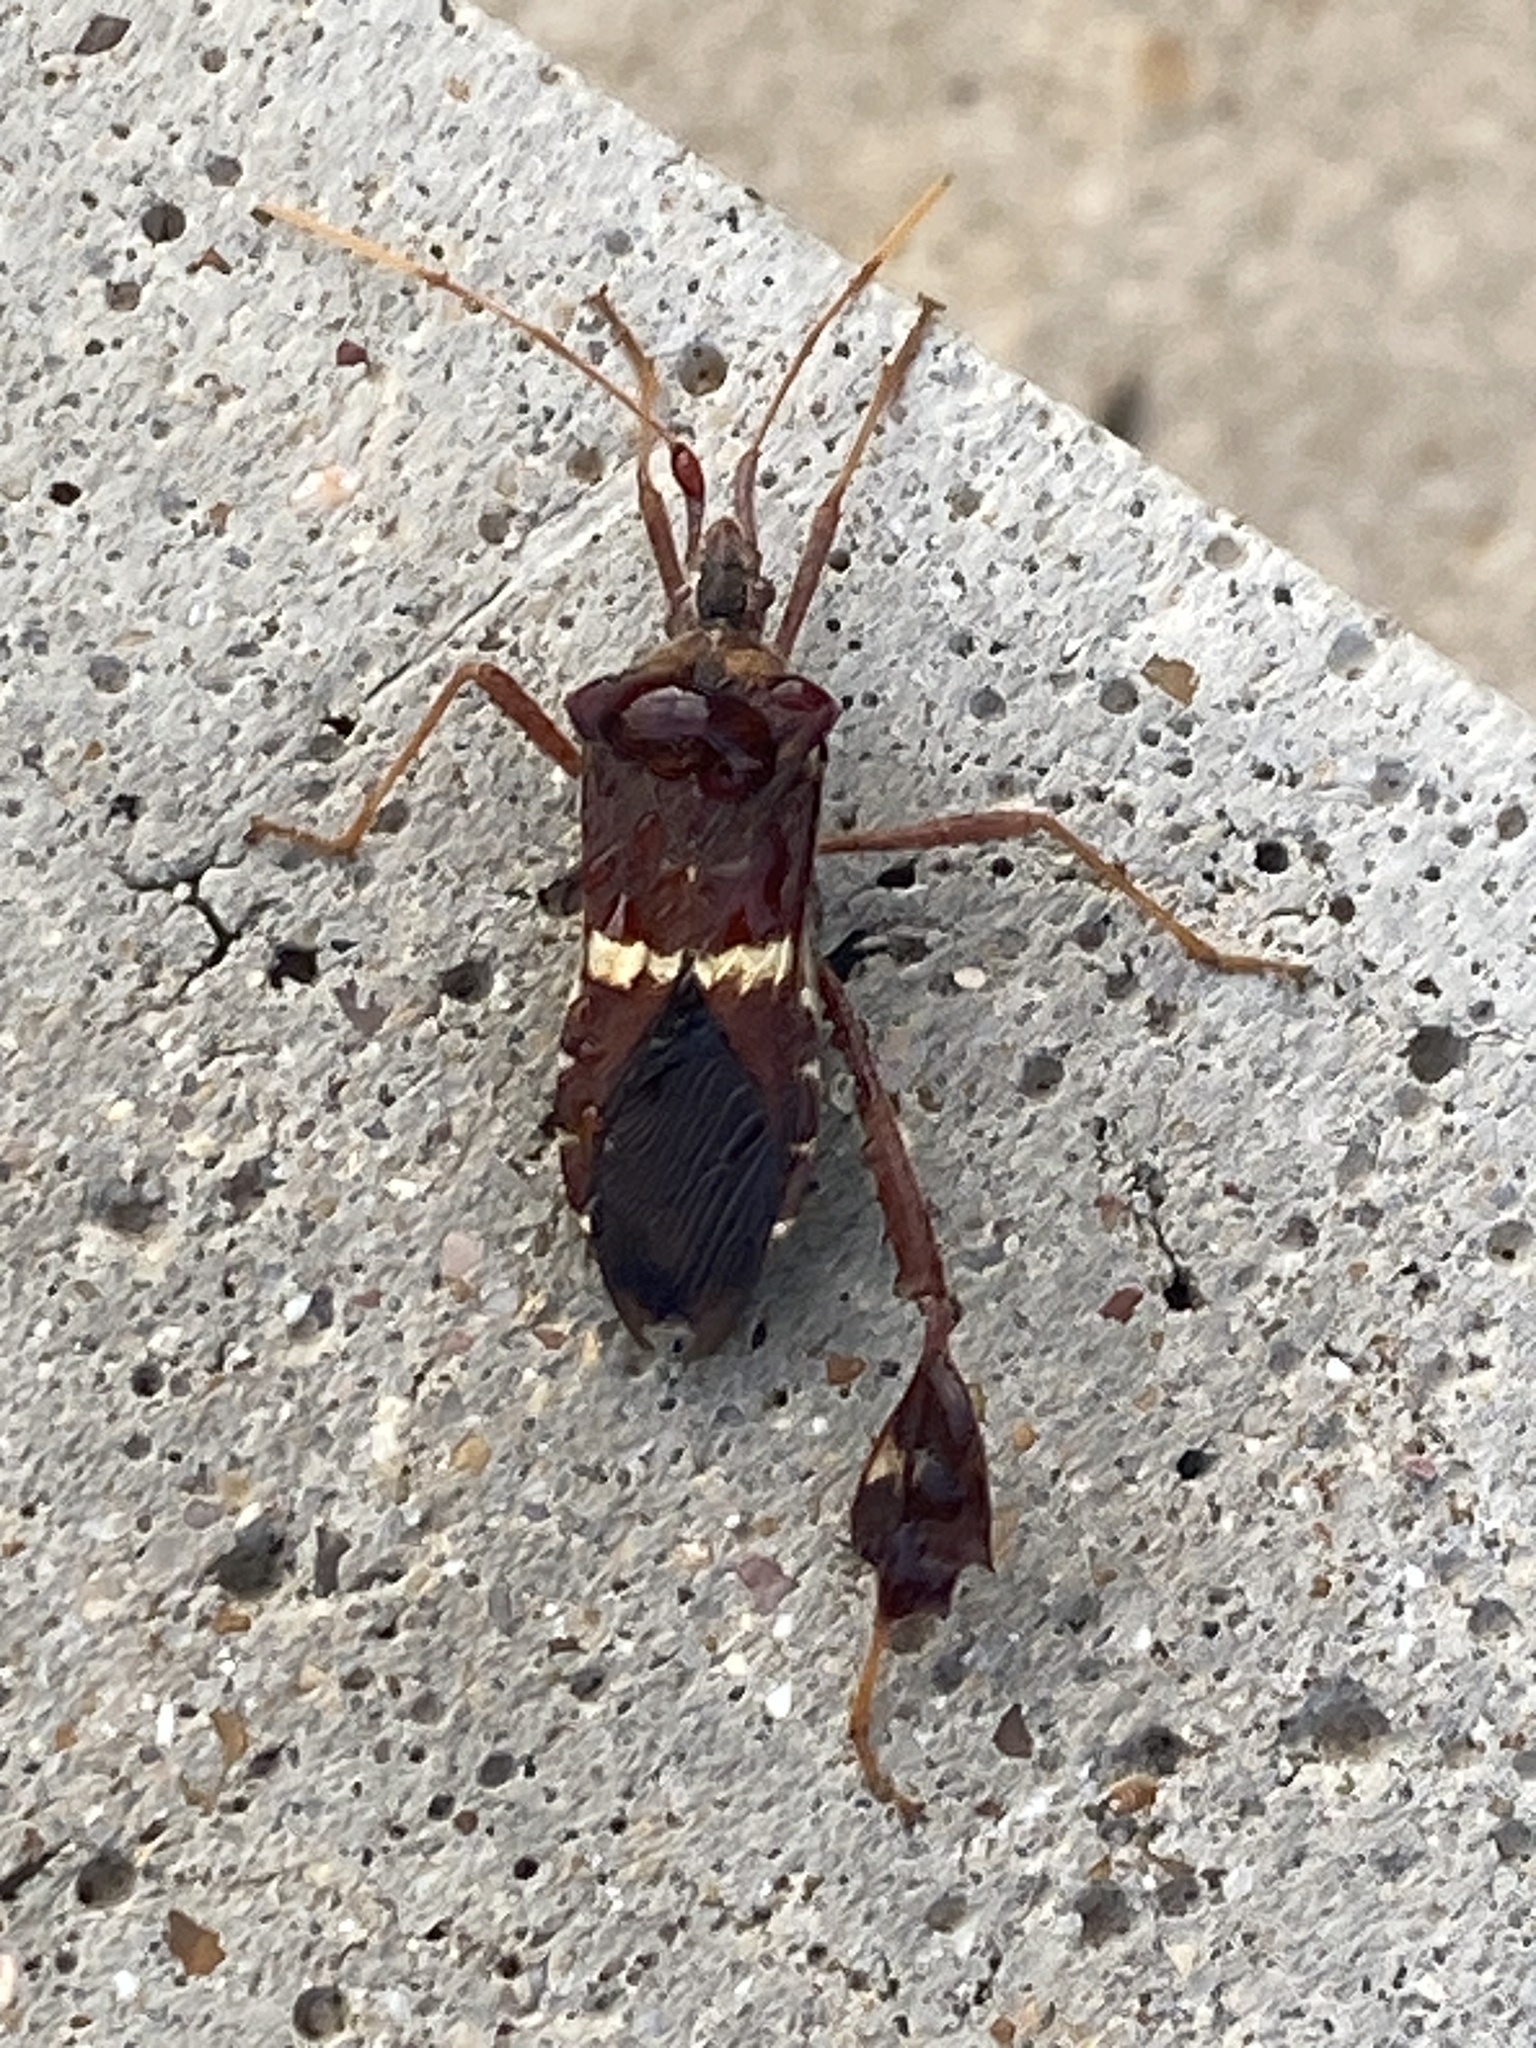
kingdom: Animalia
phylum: Arthropoda
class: Insecta
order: Hemiptera
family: Coreidae
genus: Leptoglossus
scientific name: Leptoglossus zonatus
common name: Large-legged bug
